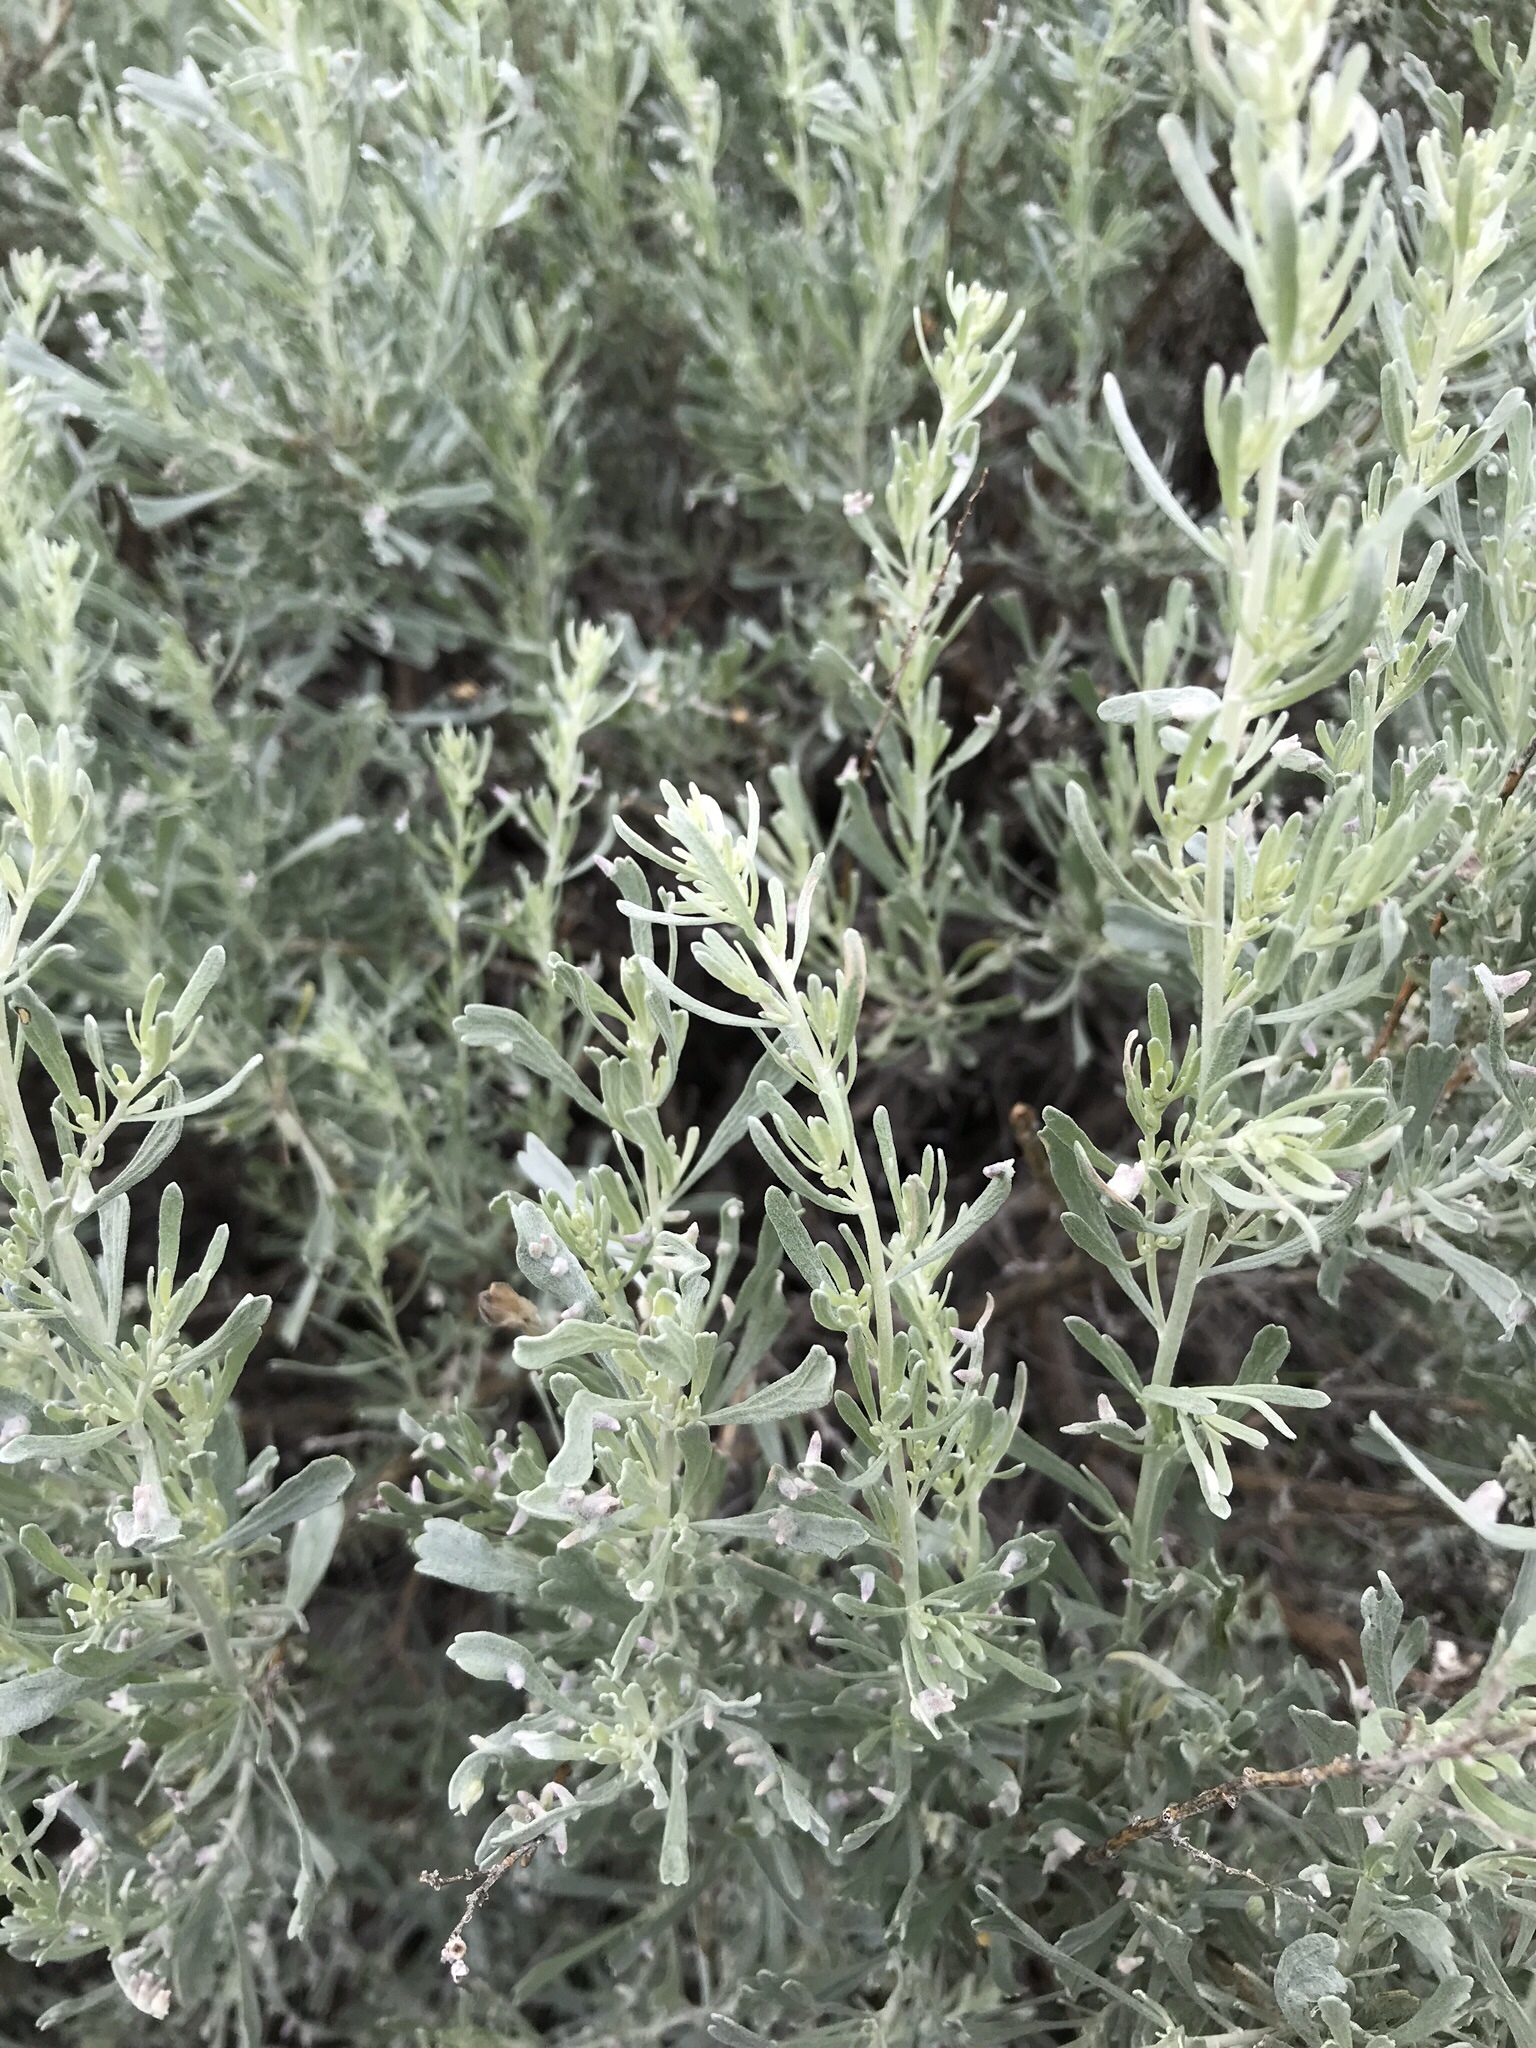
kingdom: Plantae
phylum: Tracheophyta
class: Magnoliopsida
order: Asterales
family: Asteraceae
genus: Artemisia
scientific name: Artemisia tridentata
